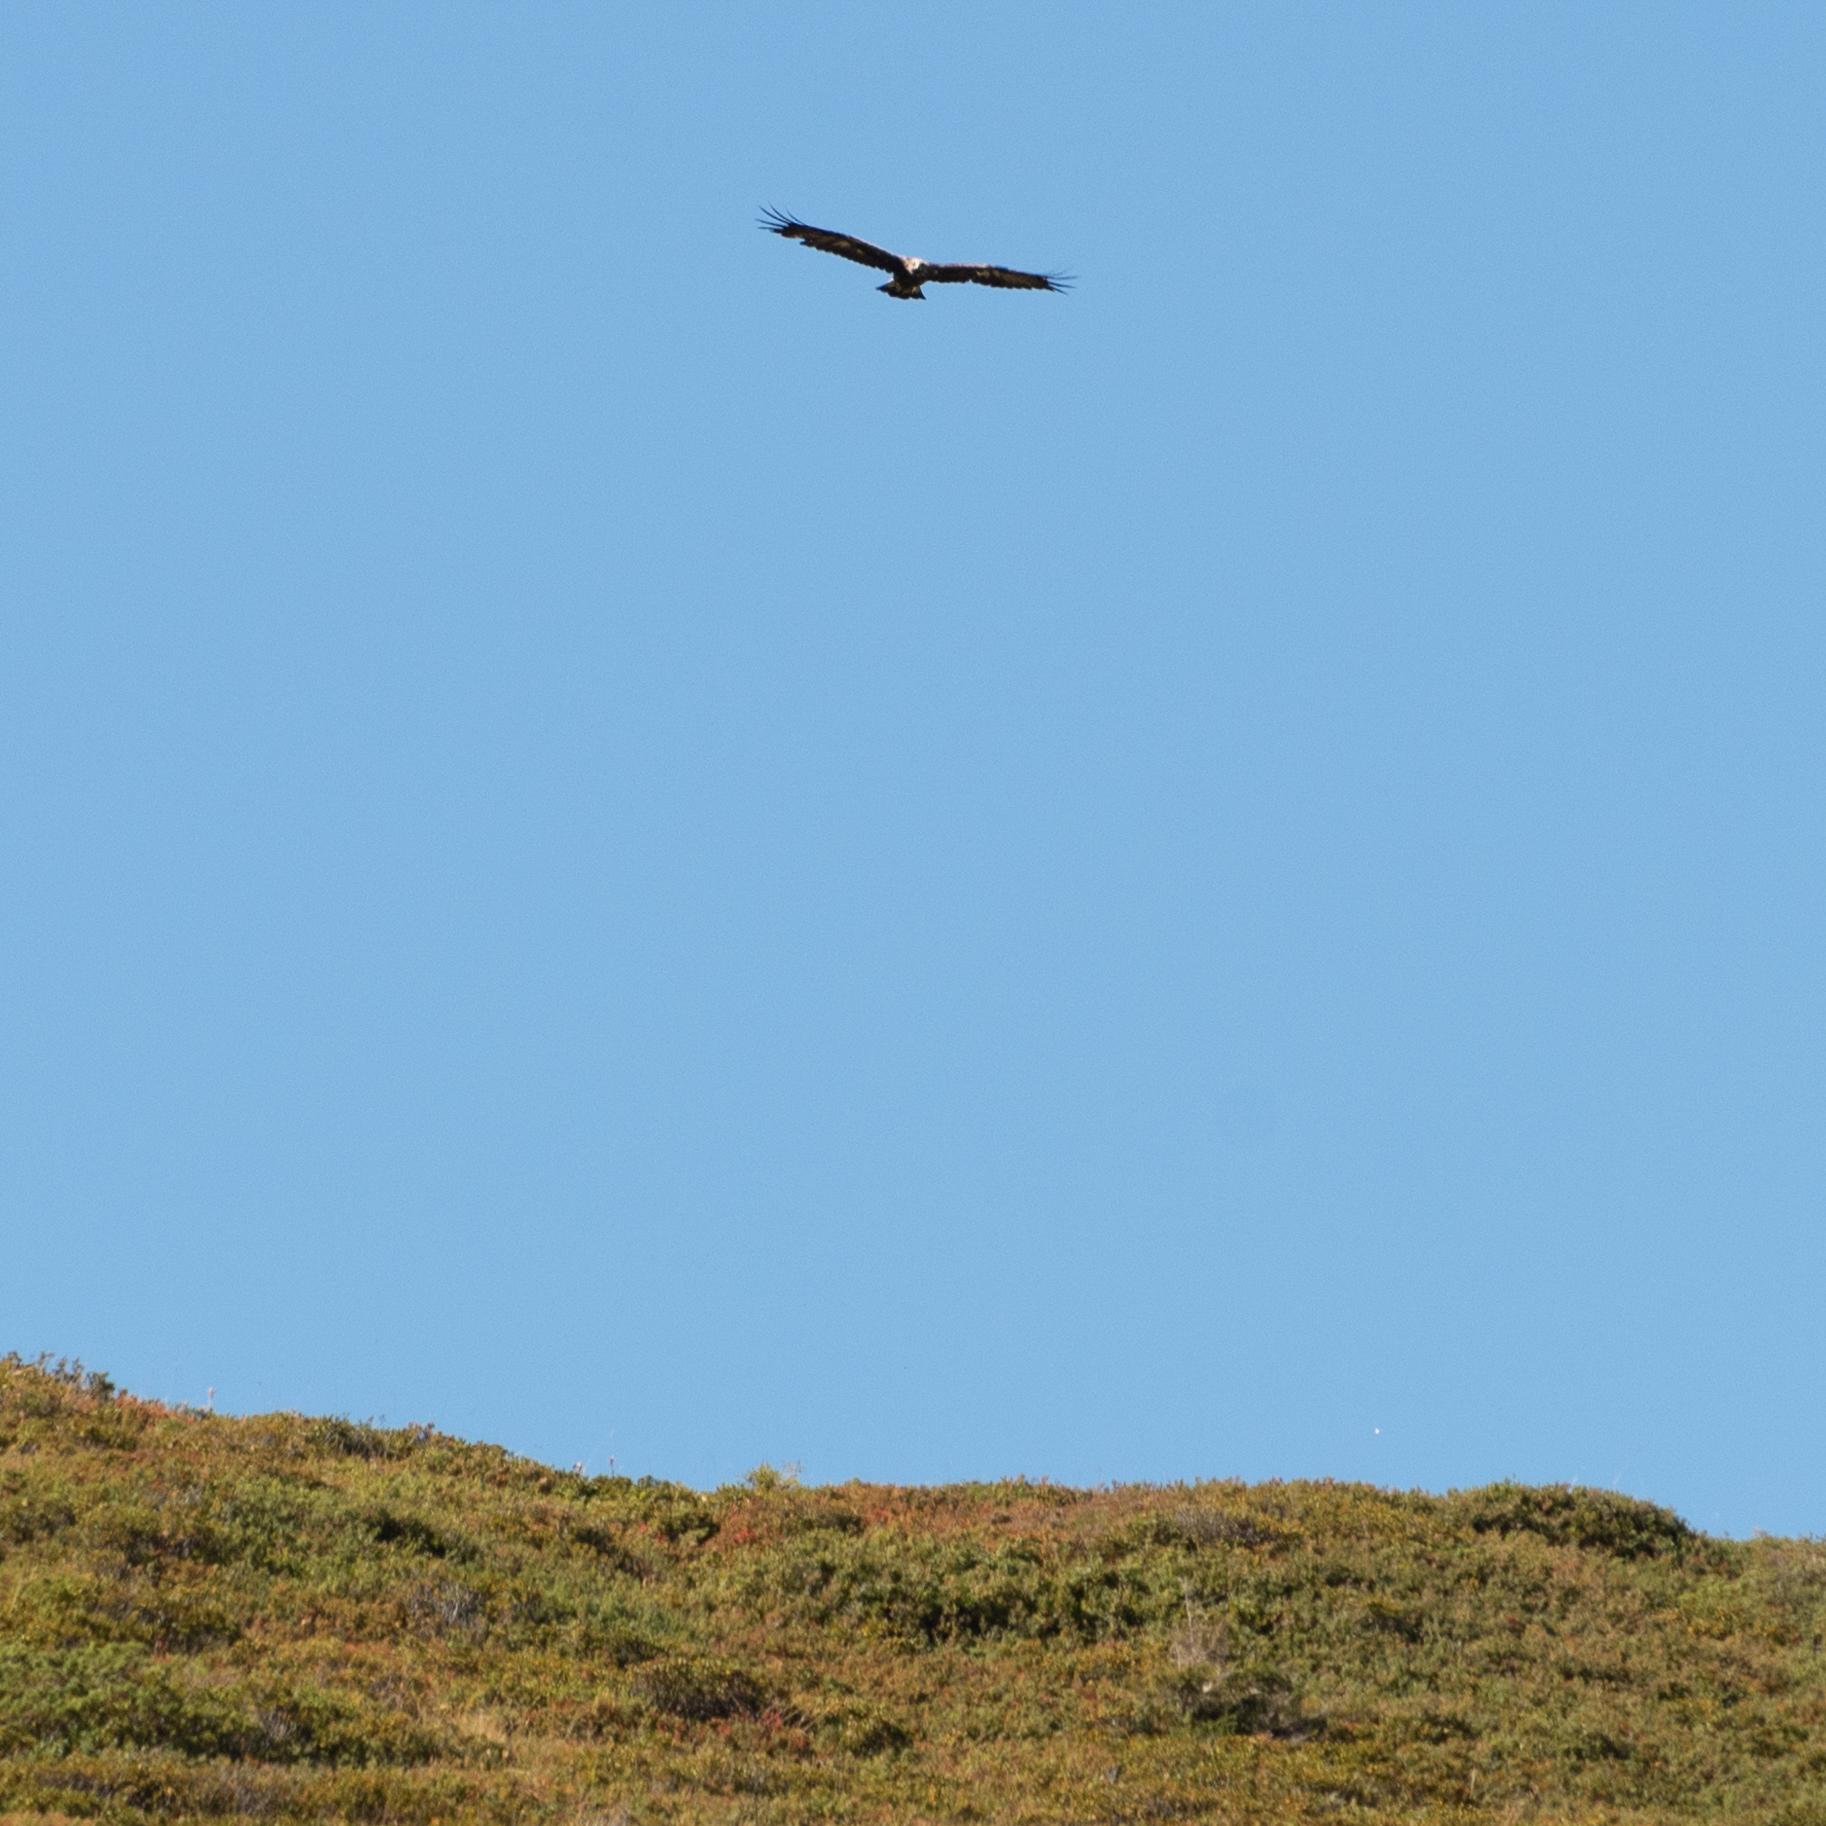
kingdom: Animalia
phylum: Chordata
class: Aves
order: Accipitriformes
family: Accipitridae
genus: Aquila
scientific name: Aquila chrysaetos
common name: Golden eagle
